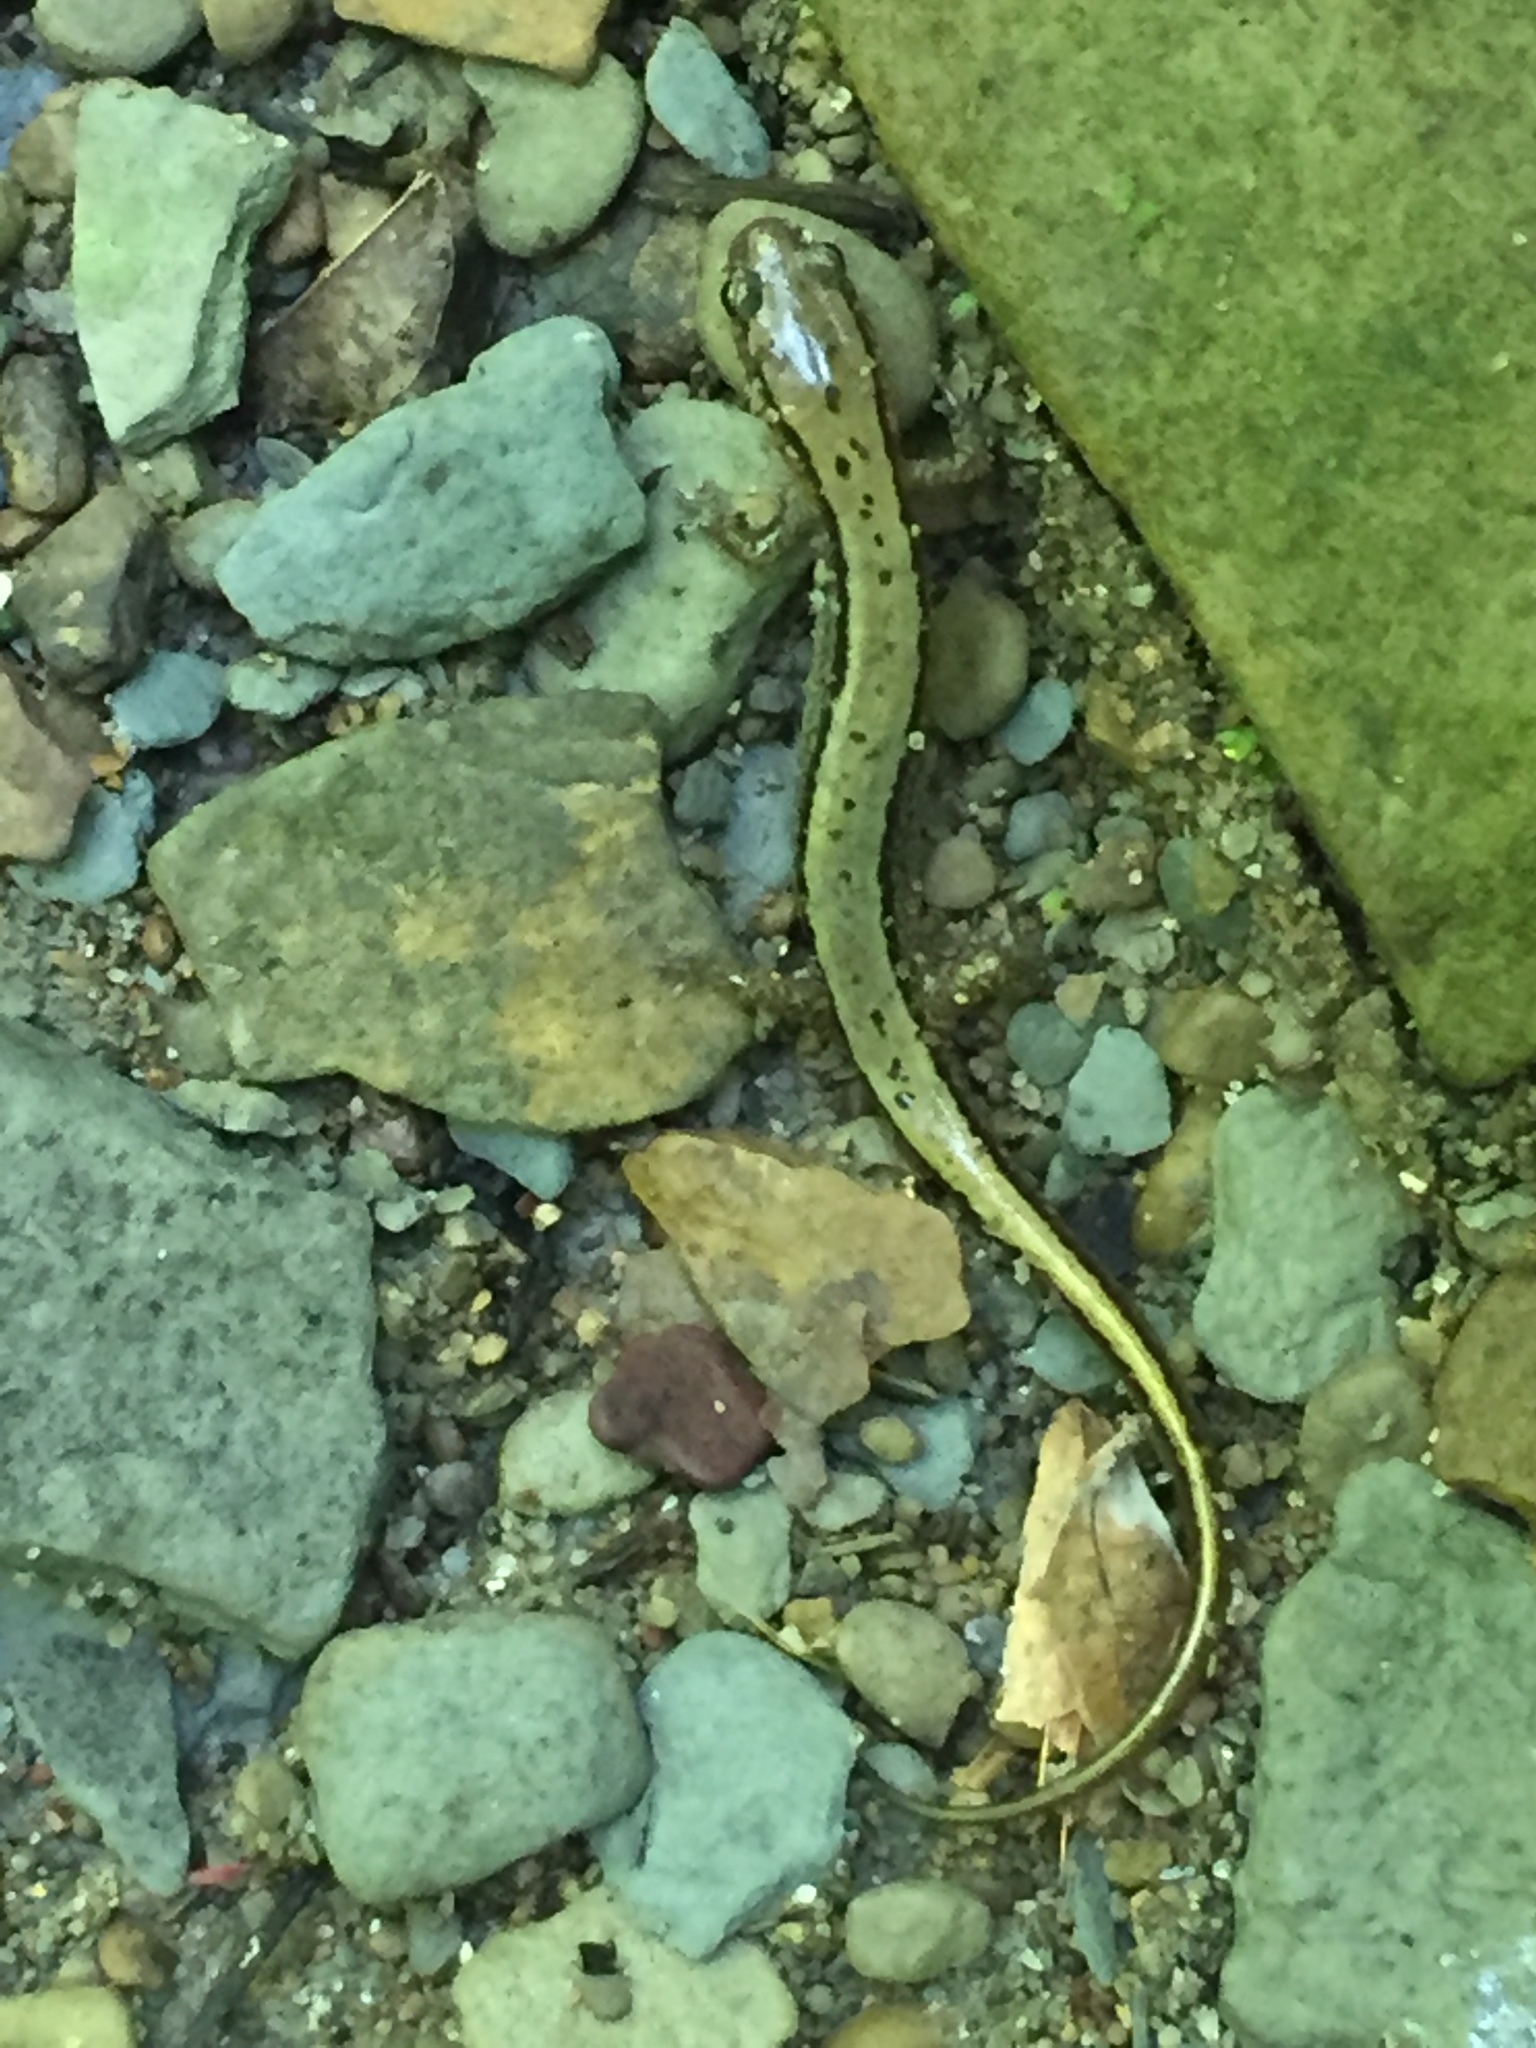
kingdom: Animalia
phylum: Chordata
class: Amphibia
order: Caudata
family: Plethodontidae
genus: Eurycea
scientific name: Eurycea cirrigera
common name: Southern two-lined salamander
